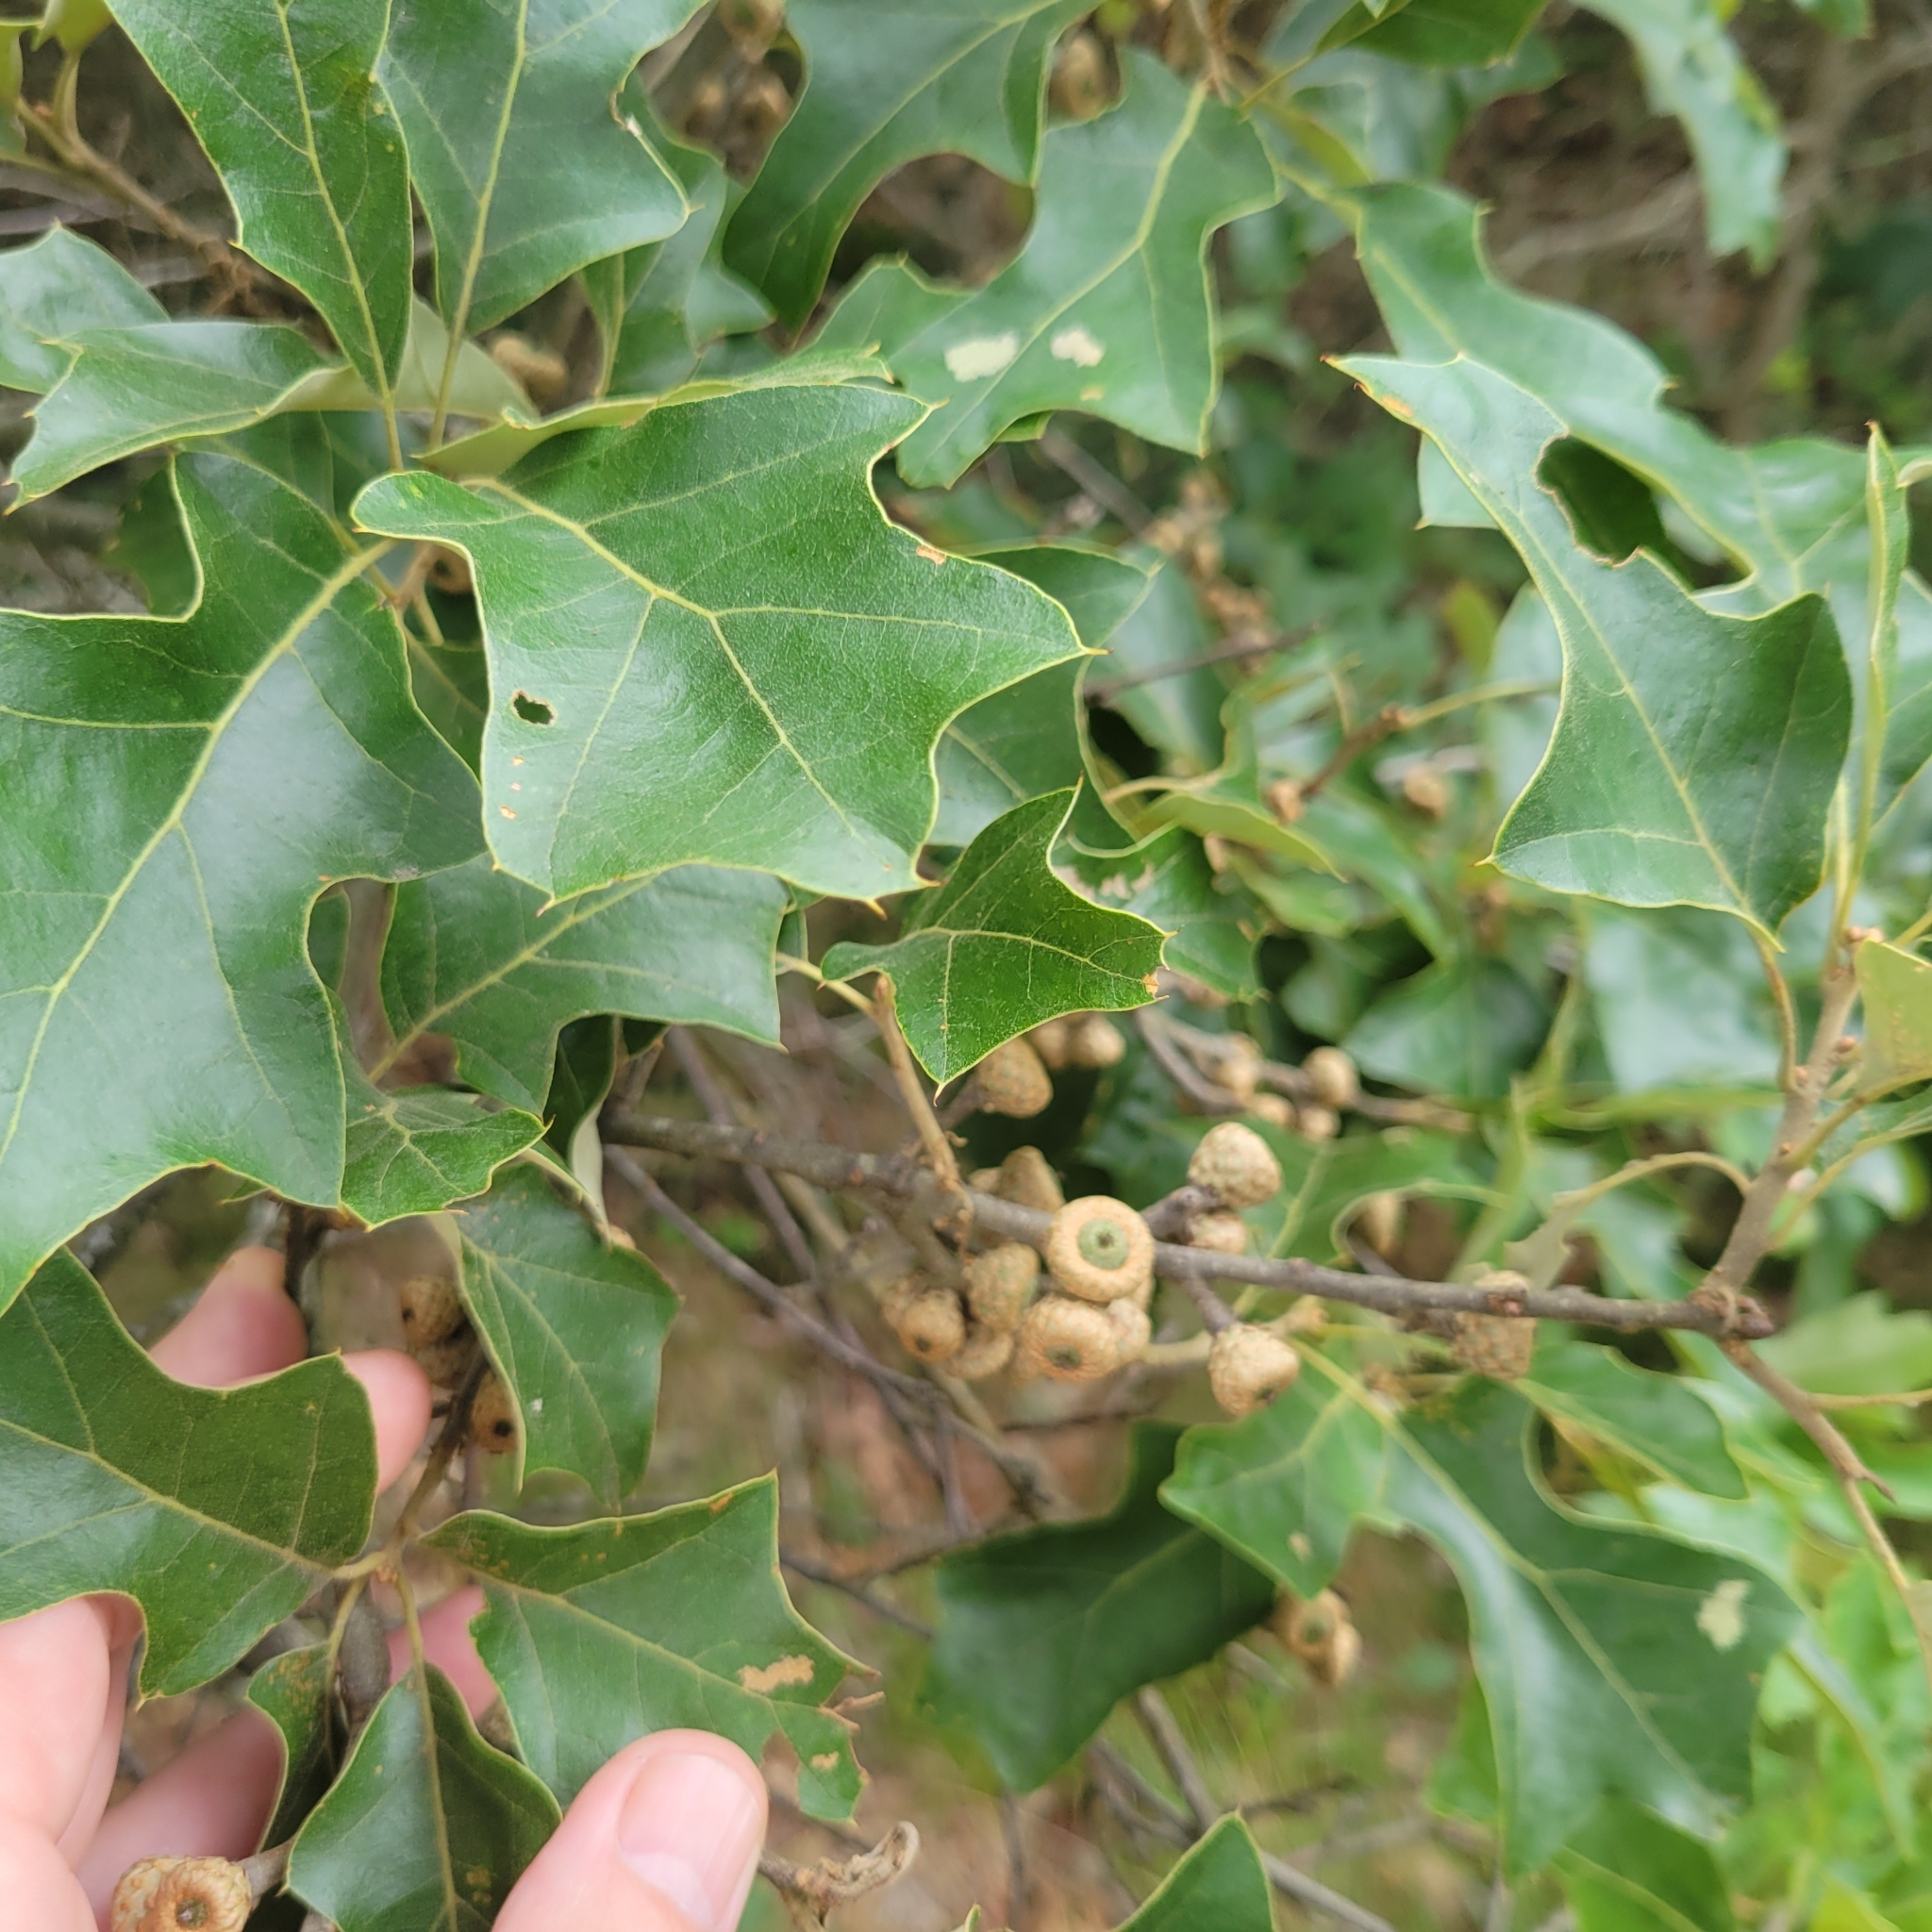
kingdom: Plantae
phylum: Tracheophyta
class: Magnoliopsida
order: Fagales
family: Fagaceae
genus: Quercus
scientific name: Quercus ilicifolia
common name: Bear oak
